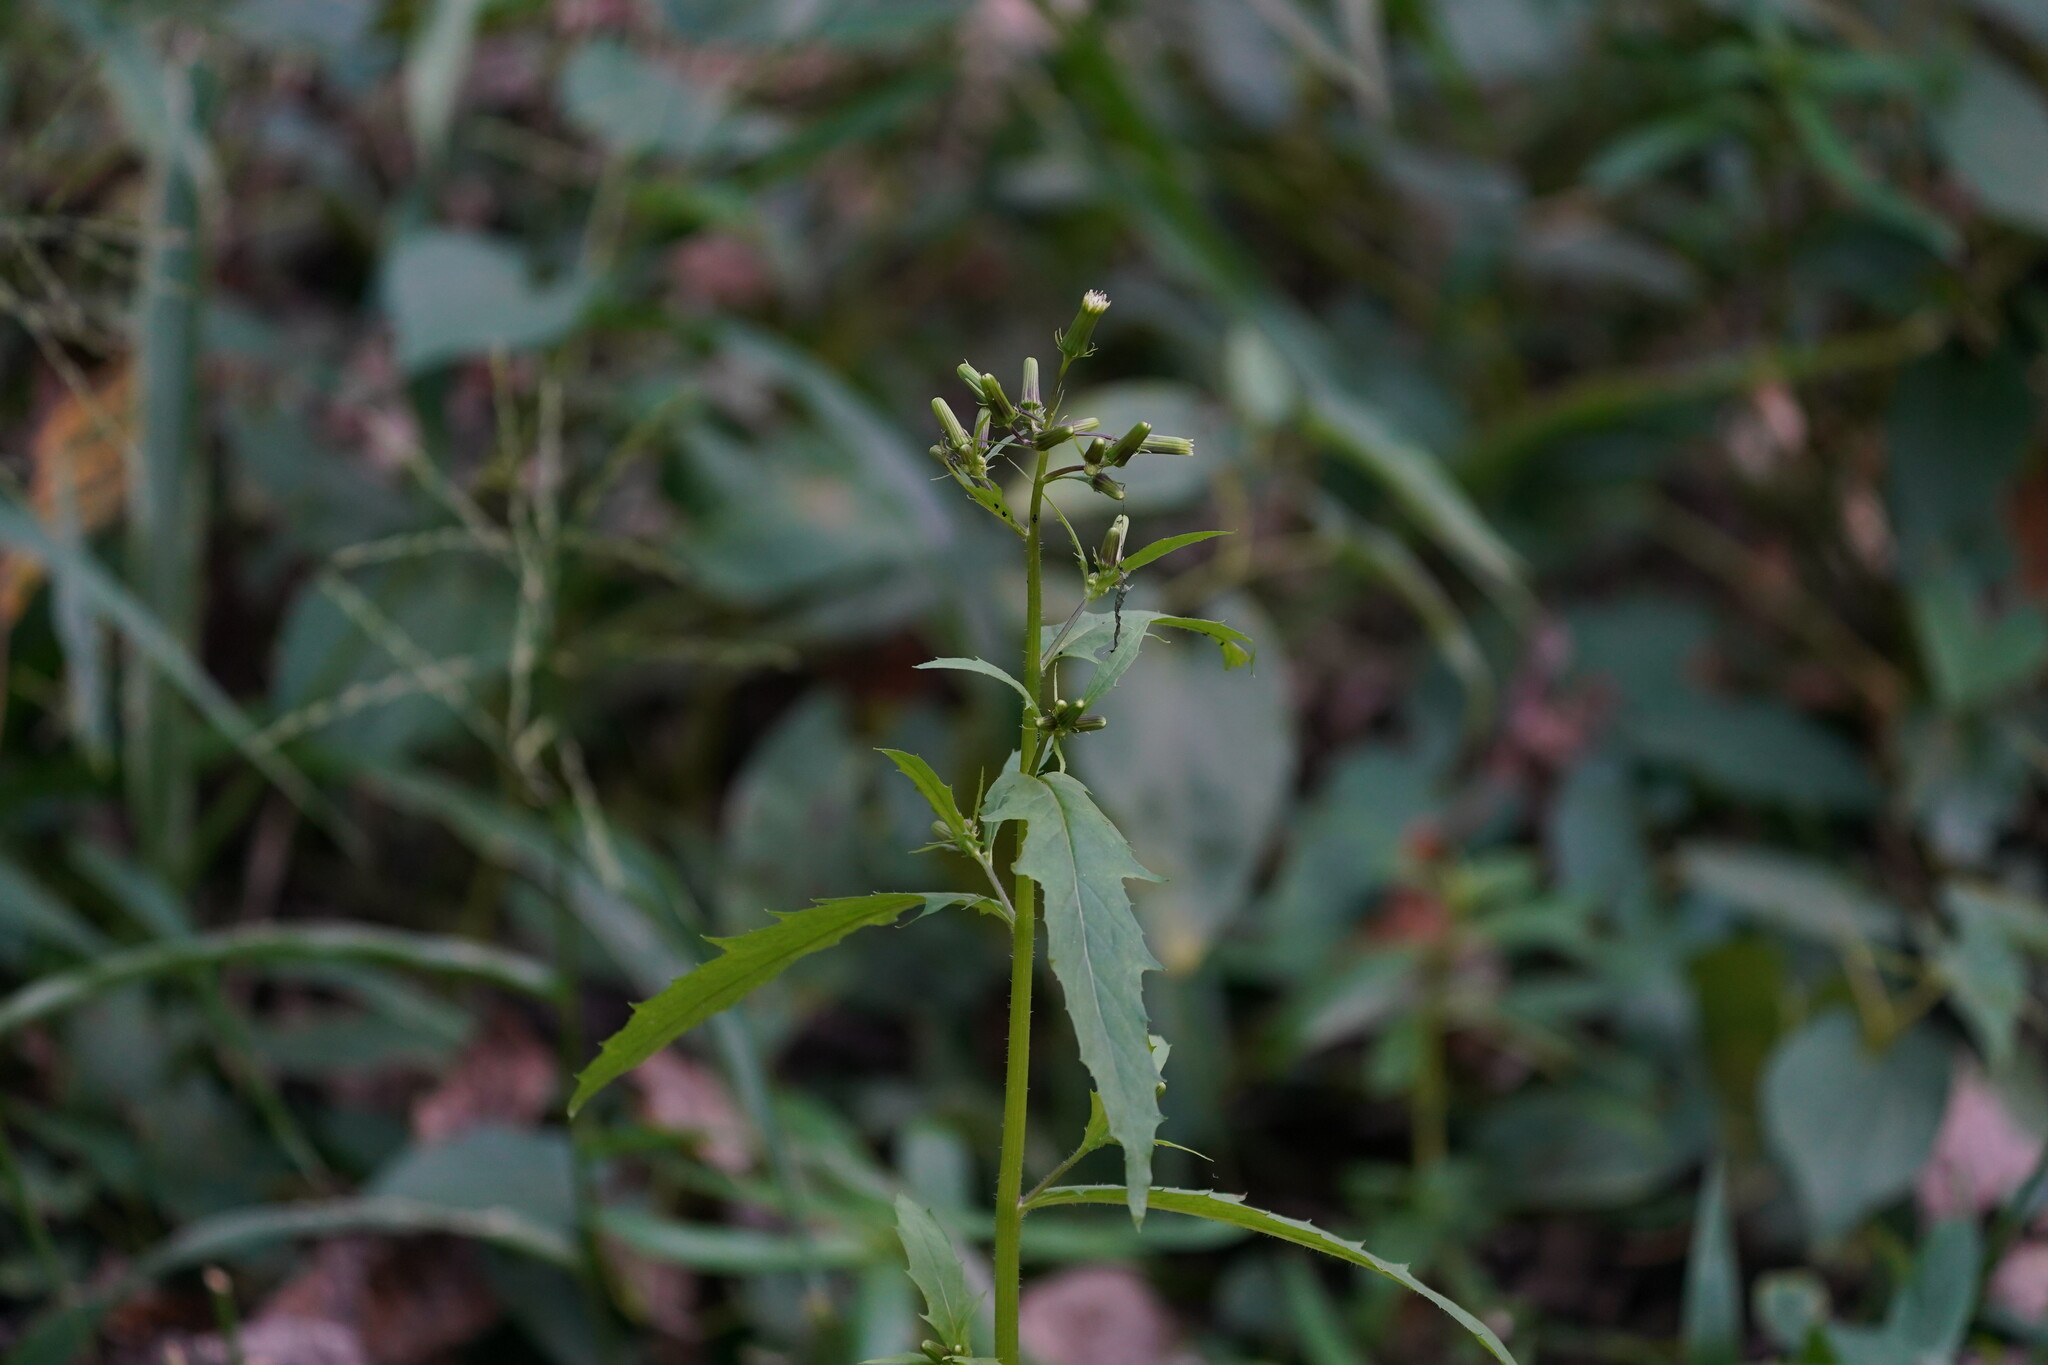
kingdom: Plantae
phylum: Tracheophyta
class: Magnoliopsida
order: Asterales
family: Asteraceae
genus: Erechtites
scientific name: Erechtites hieraciifolius
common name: American burnweed
